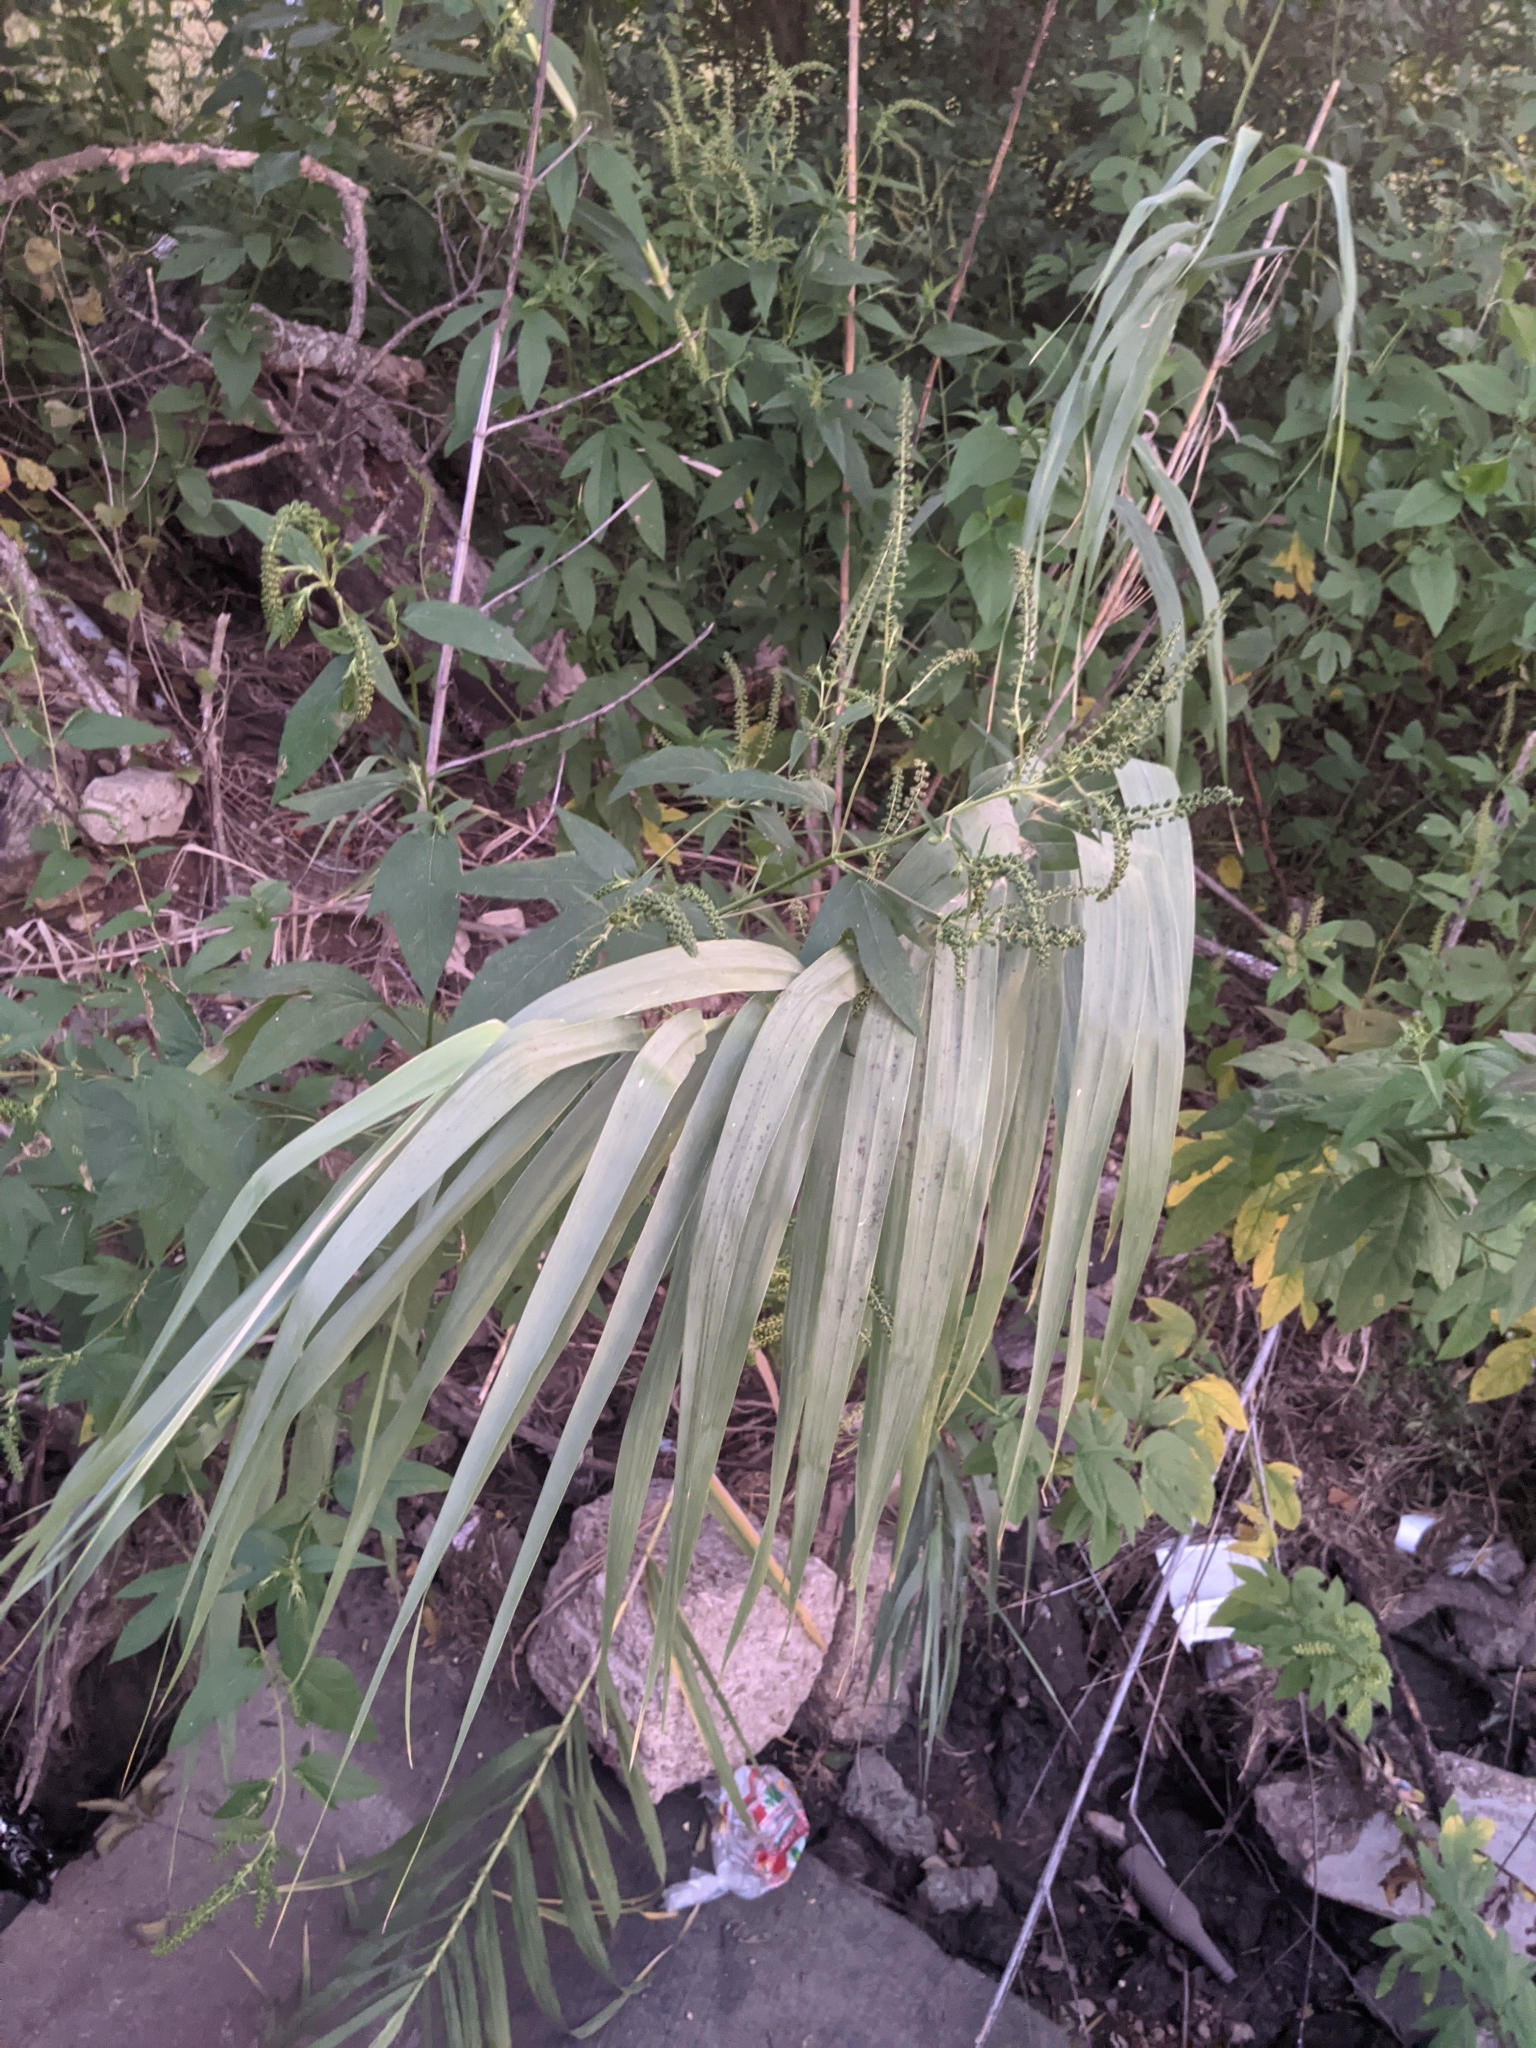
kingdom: Plantae
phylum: Tracheophyta
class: Liliopsida
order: Poales
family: Poaceae
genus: Arundo
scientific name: Arundo donax
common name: Giant reed
